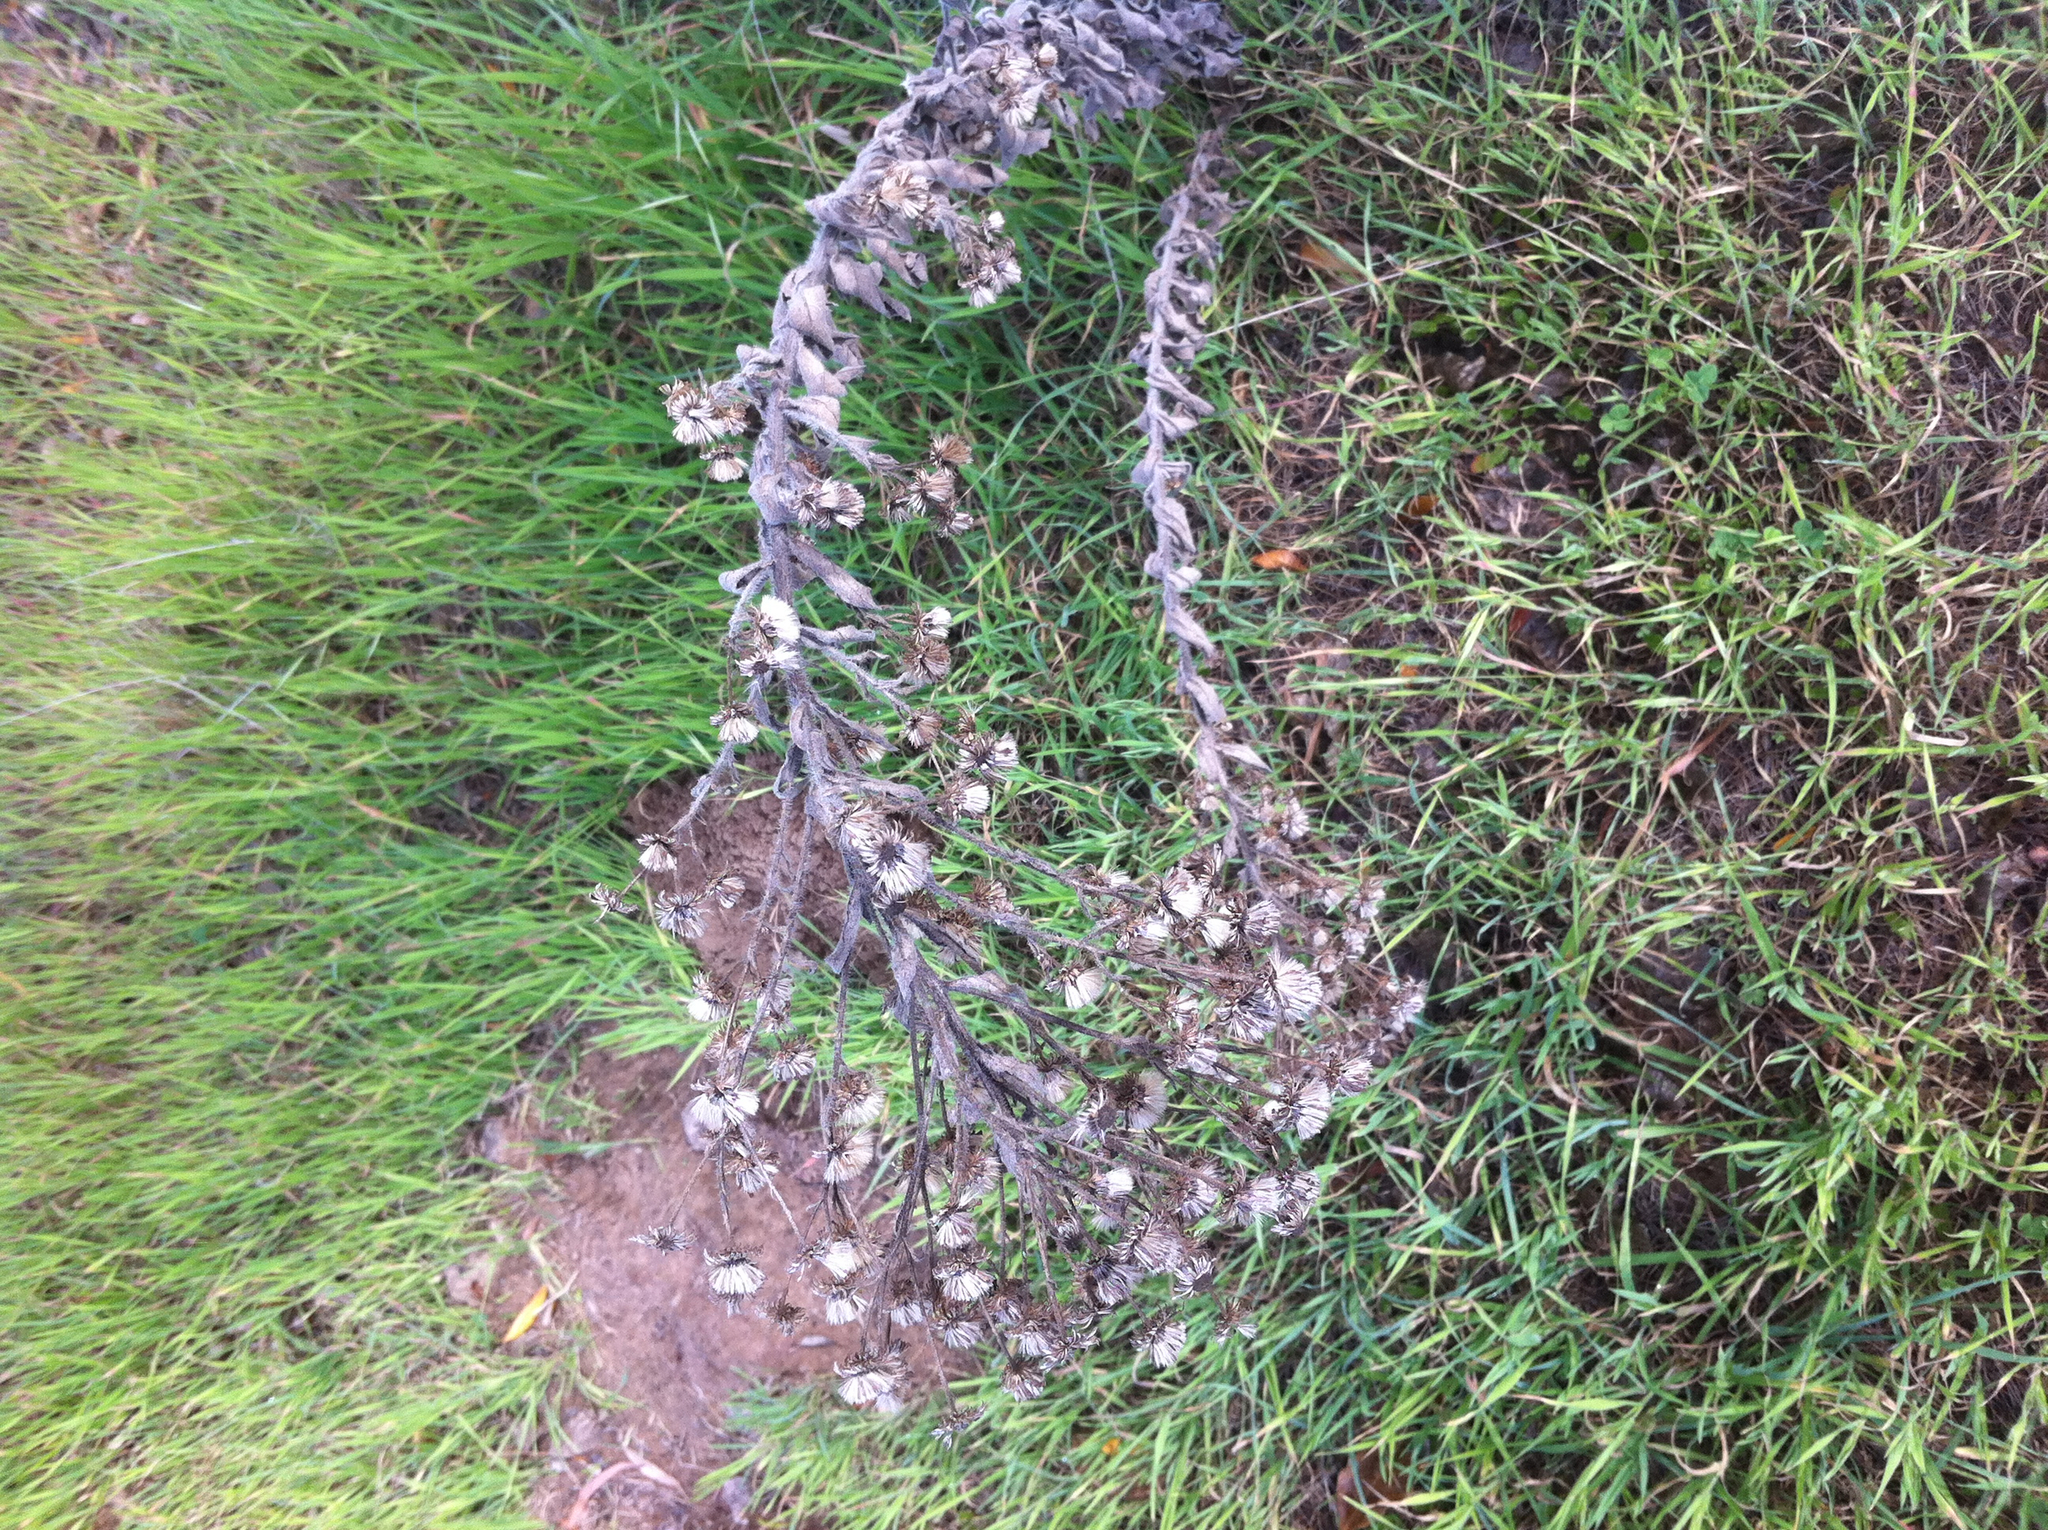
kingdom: Plantae
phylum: Tracheophyta
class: Magnoliopsida
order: Asterales
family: Asteraceae
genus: Heterotheca
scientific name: Heterotheca grandiflora
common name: Telegraphweed
